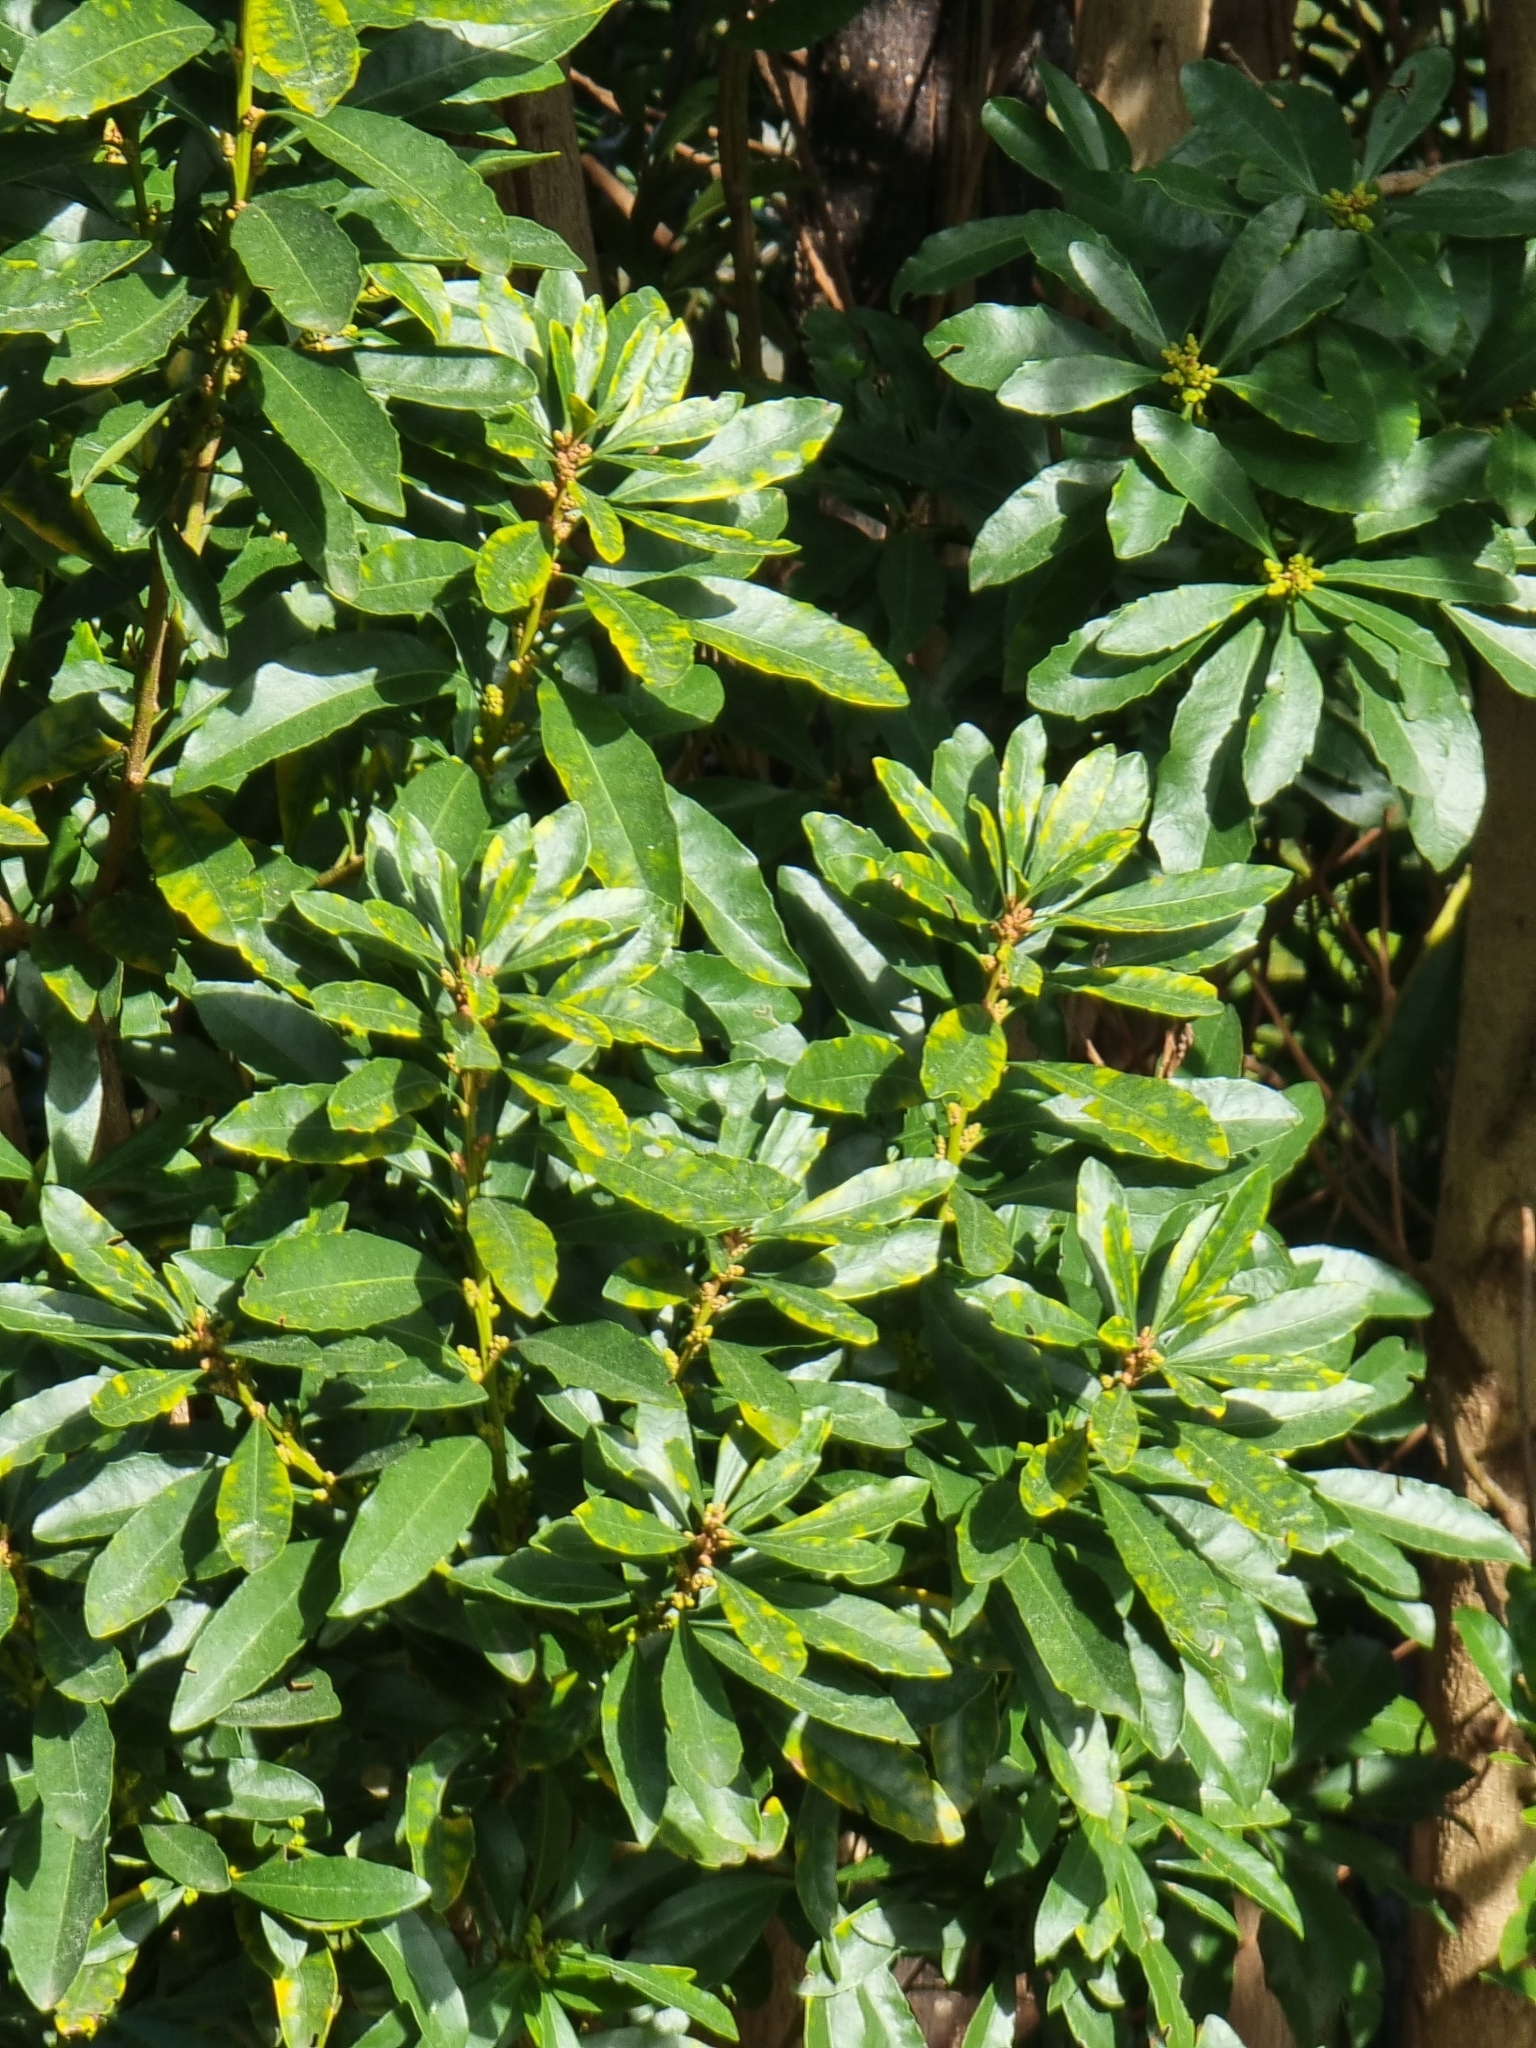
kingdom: Plantae
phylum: Tracheophyta
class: Magnoliopsida
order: Fagales
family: Myricaceae
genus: Morella
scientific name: Morella faya
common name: Firetree
